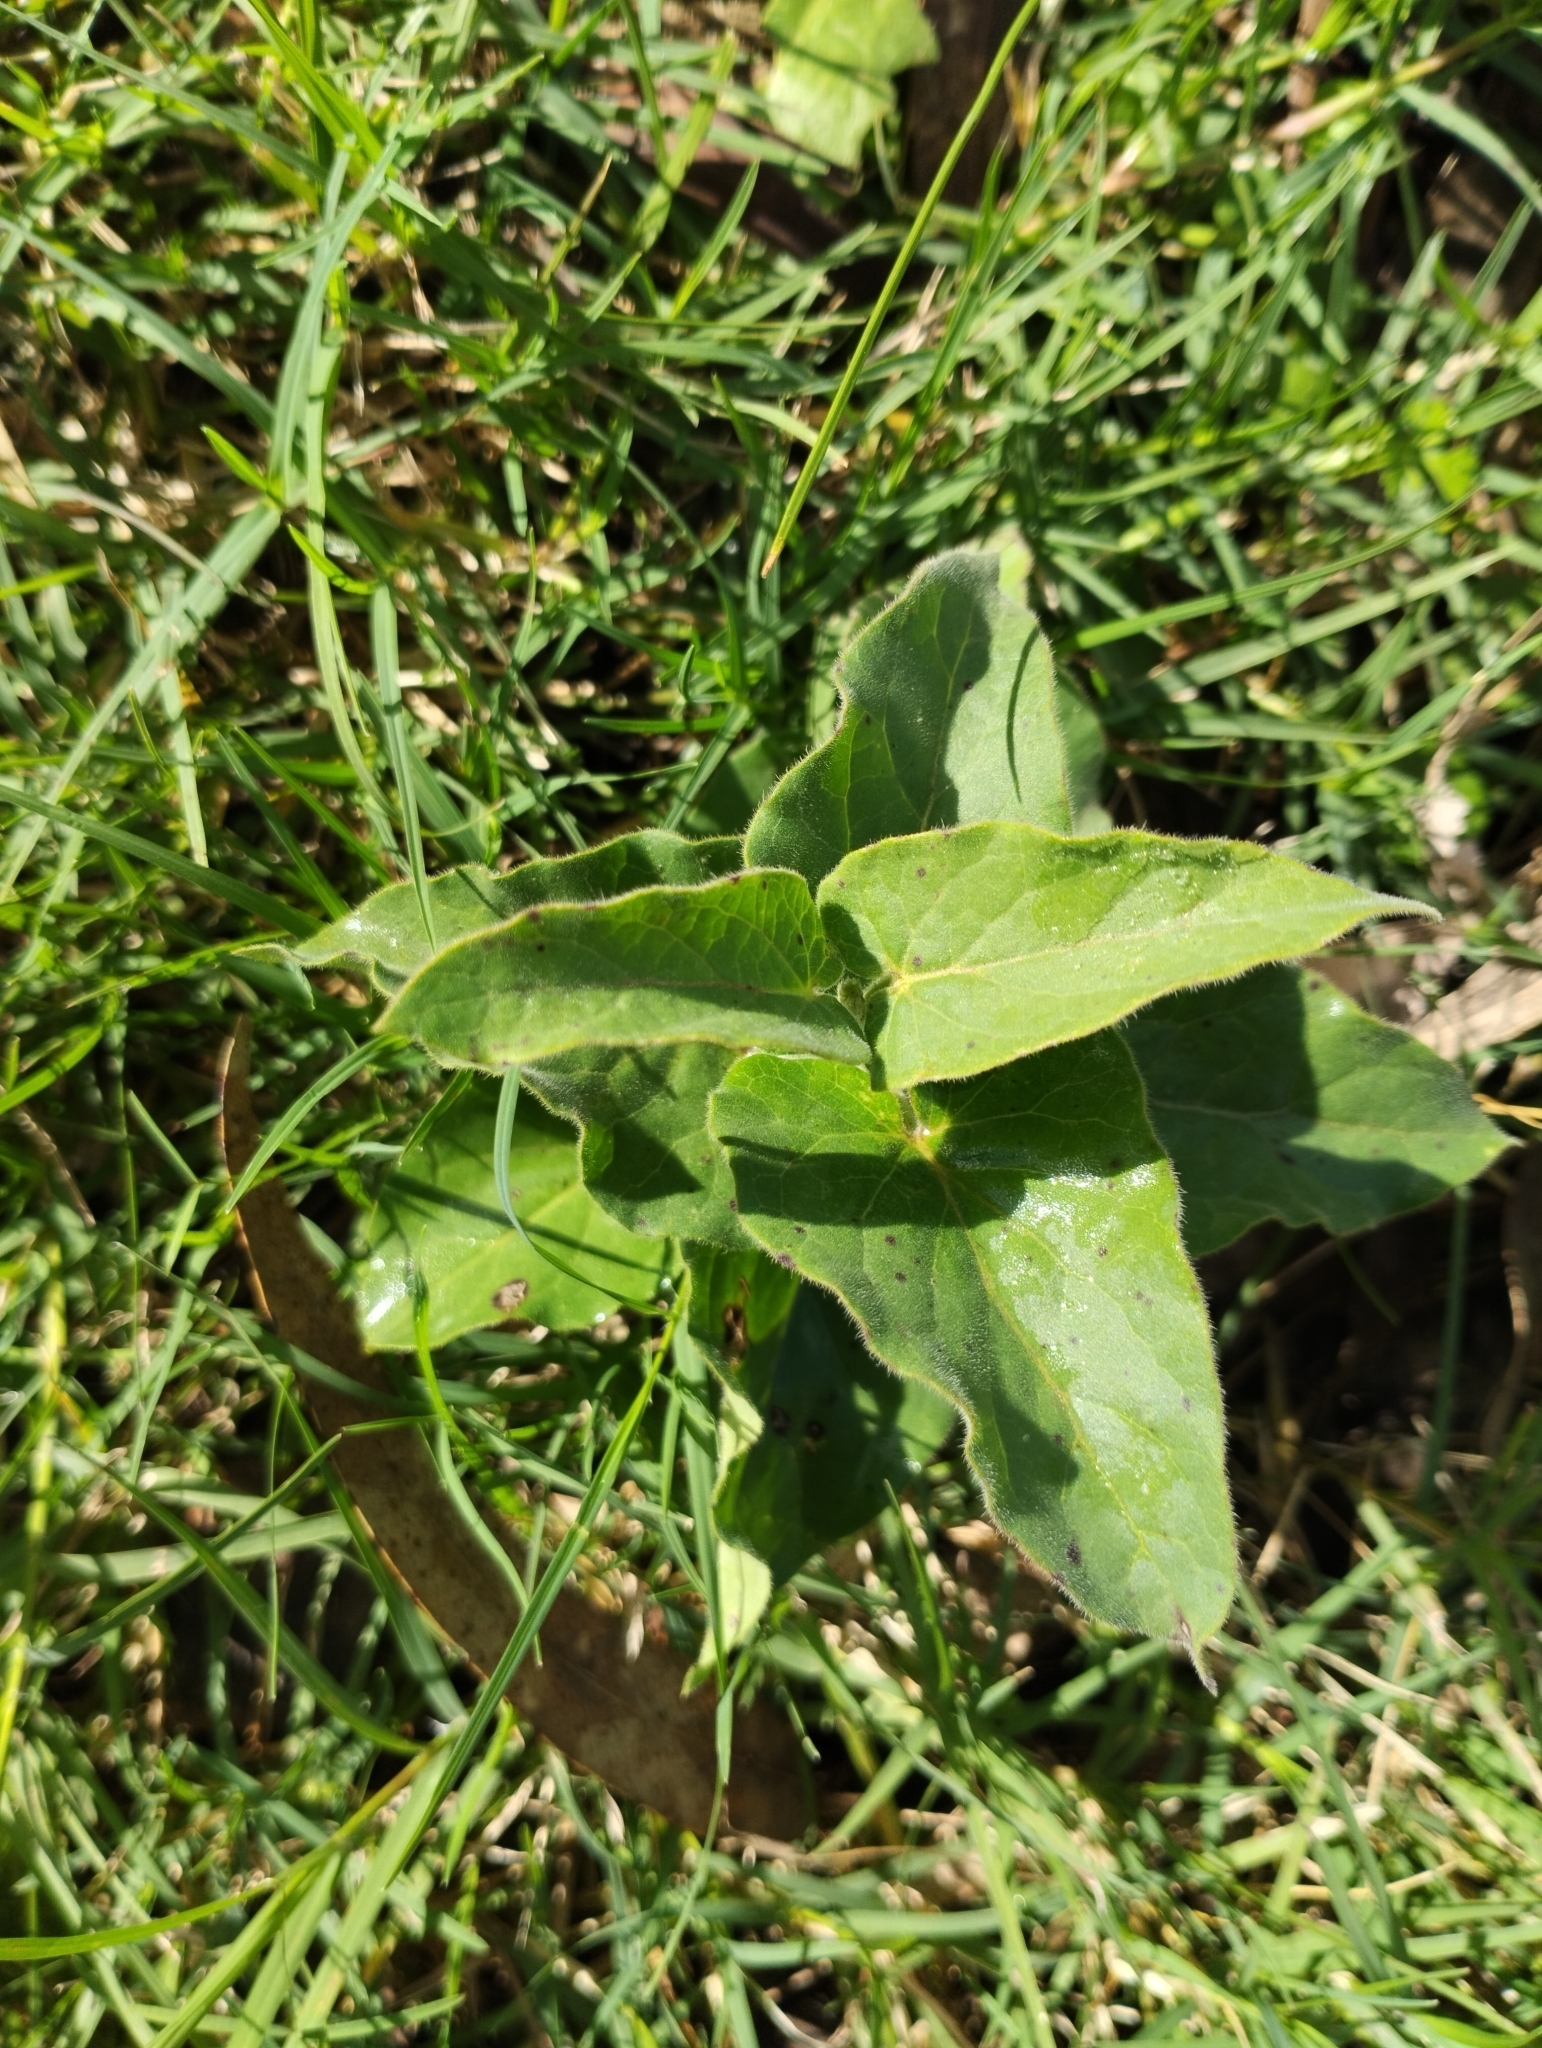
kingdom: Plantae
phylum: Tracheophyta
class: Magnoliopsida
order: Gentianales
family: Apocynaceae
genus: Oxypetalum
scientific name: Oxypetalum solanoides
